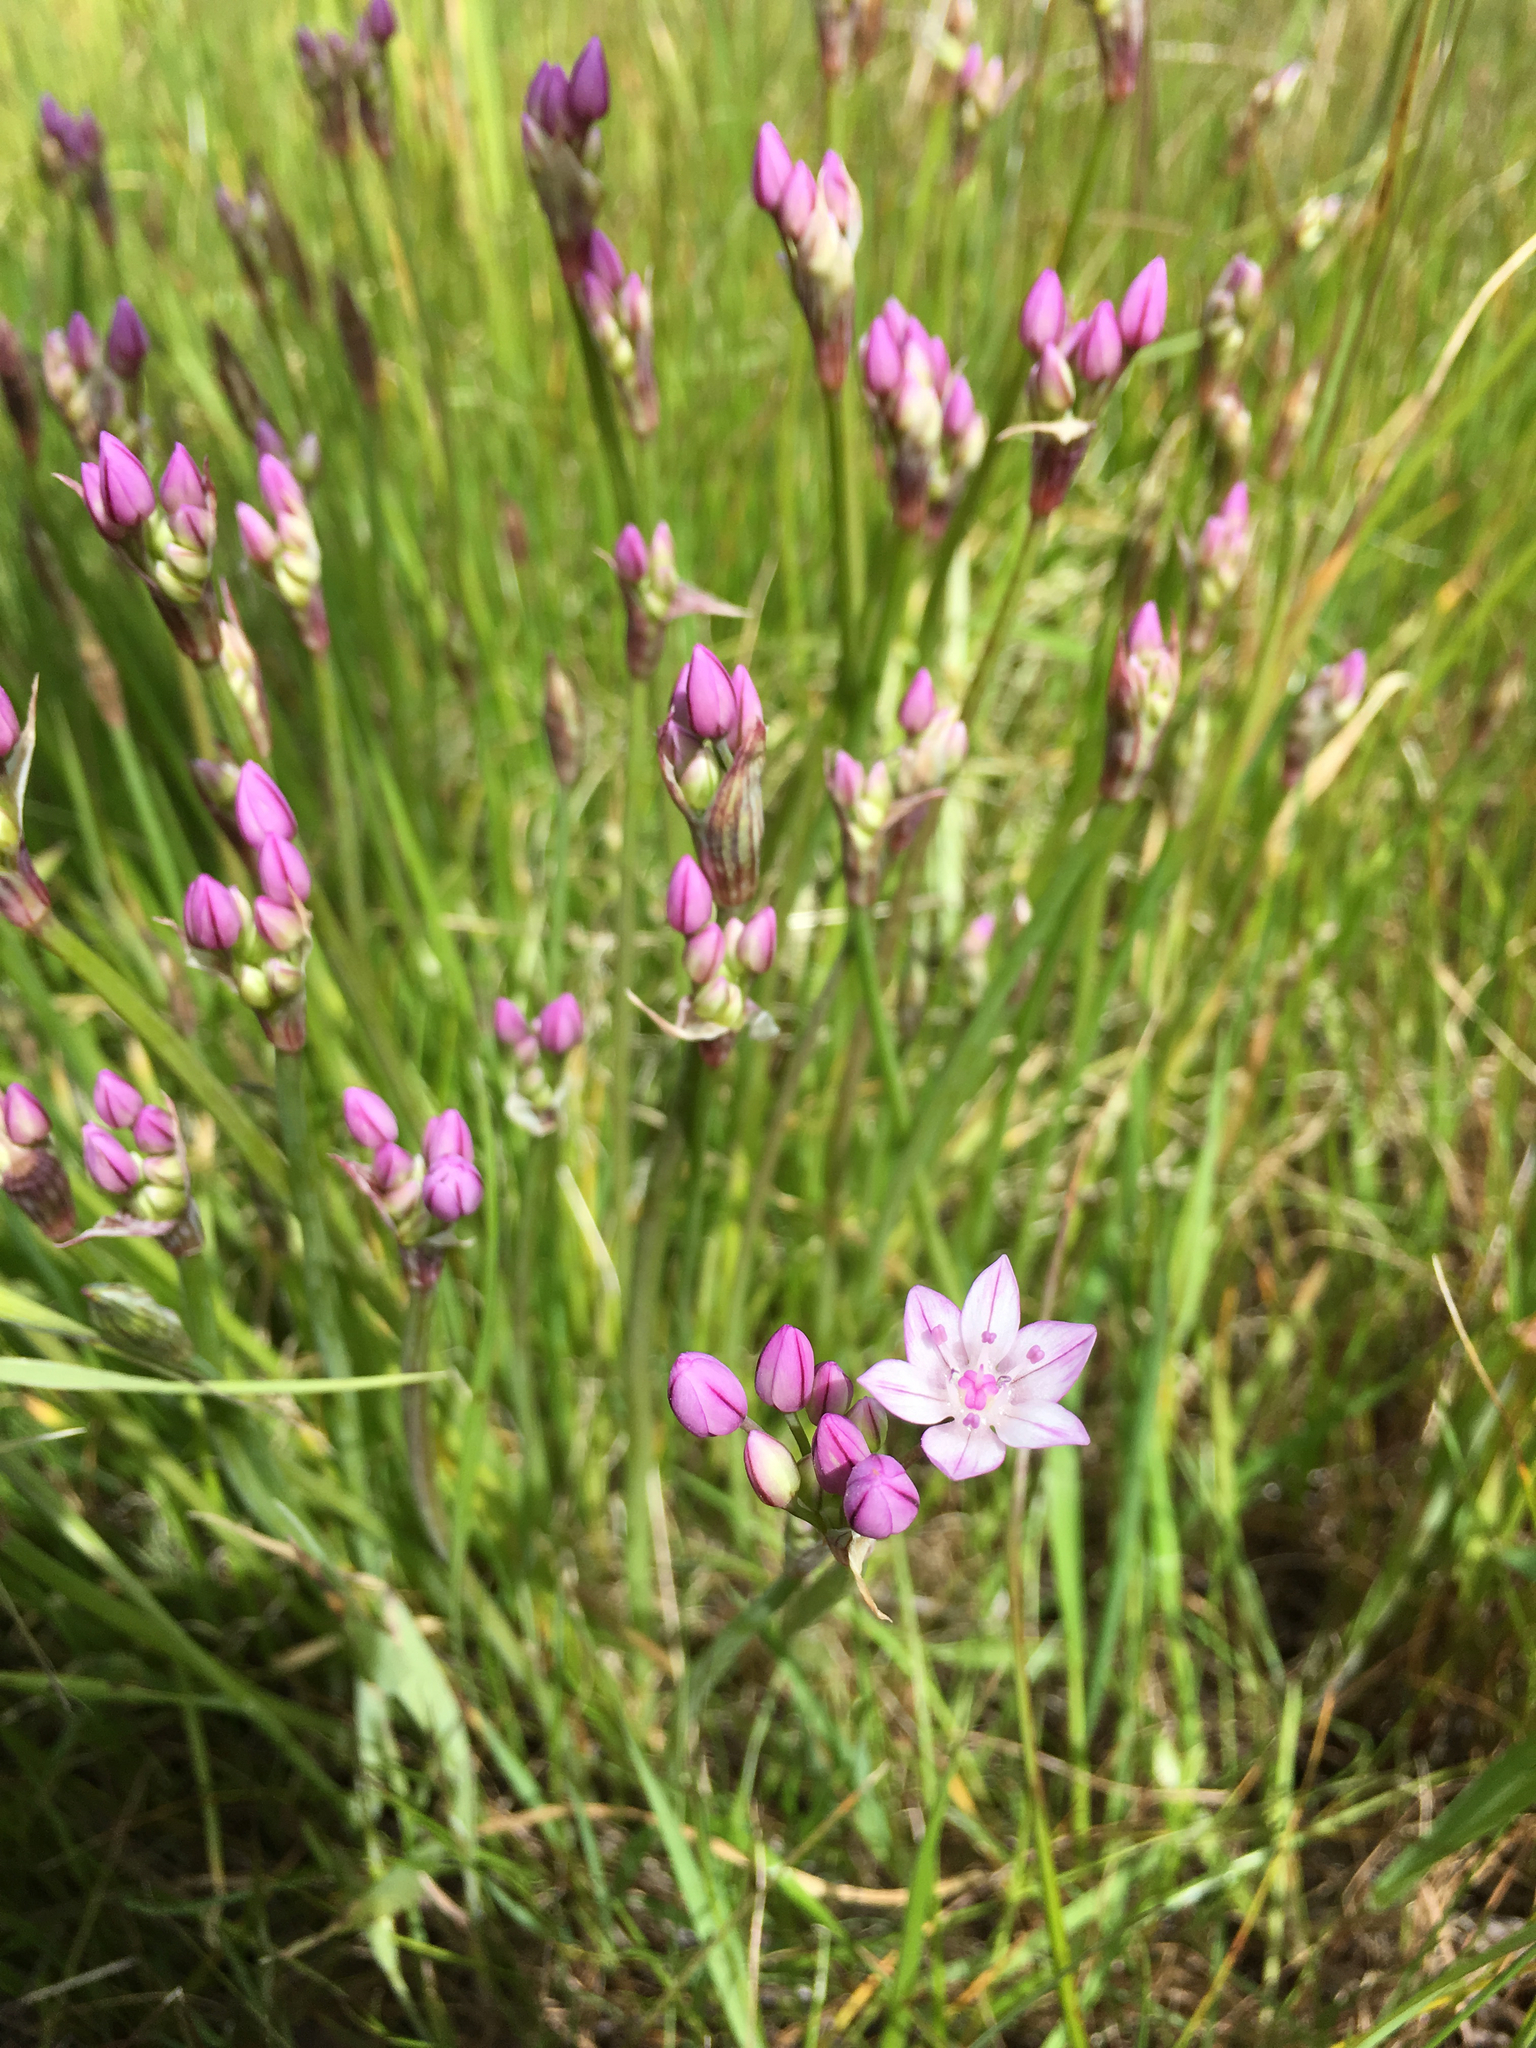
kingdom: Plantae
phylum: Tracheophyta
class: Liliopsida
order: Asparagales
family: Amaryllidaceae
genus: Allium
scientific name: Allium praecox
